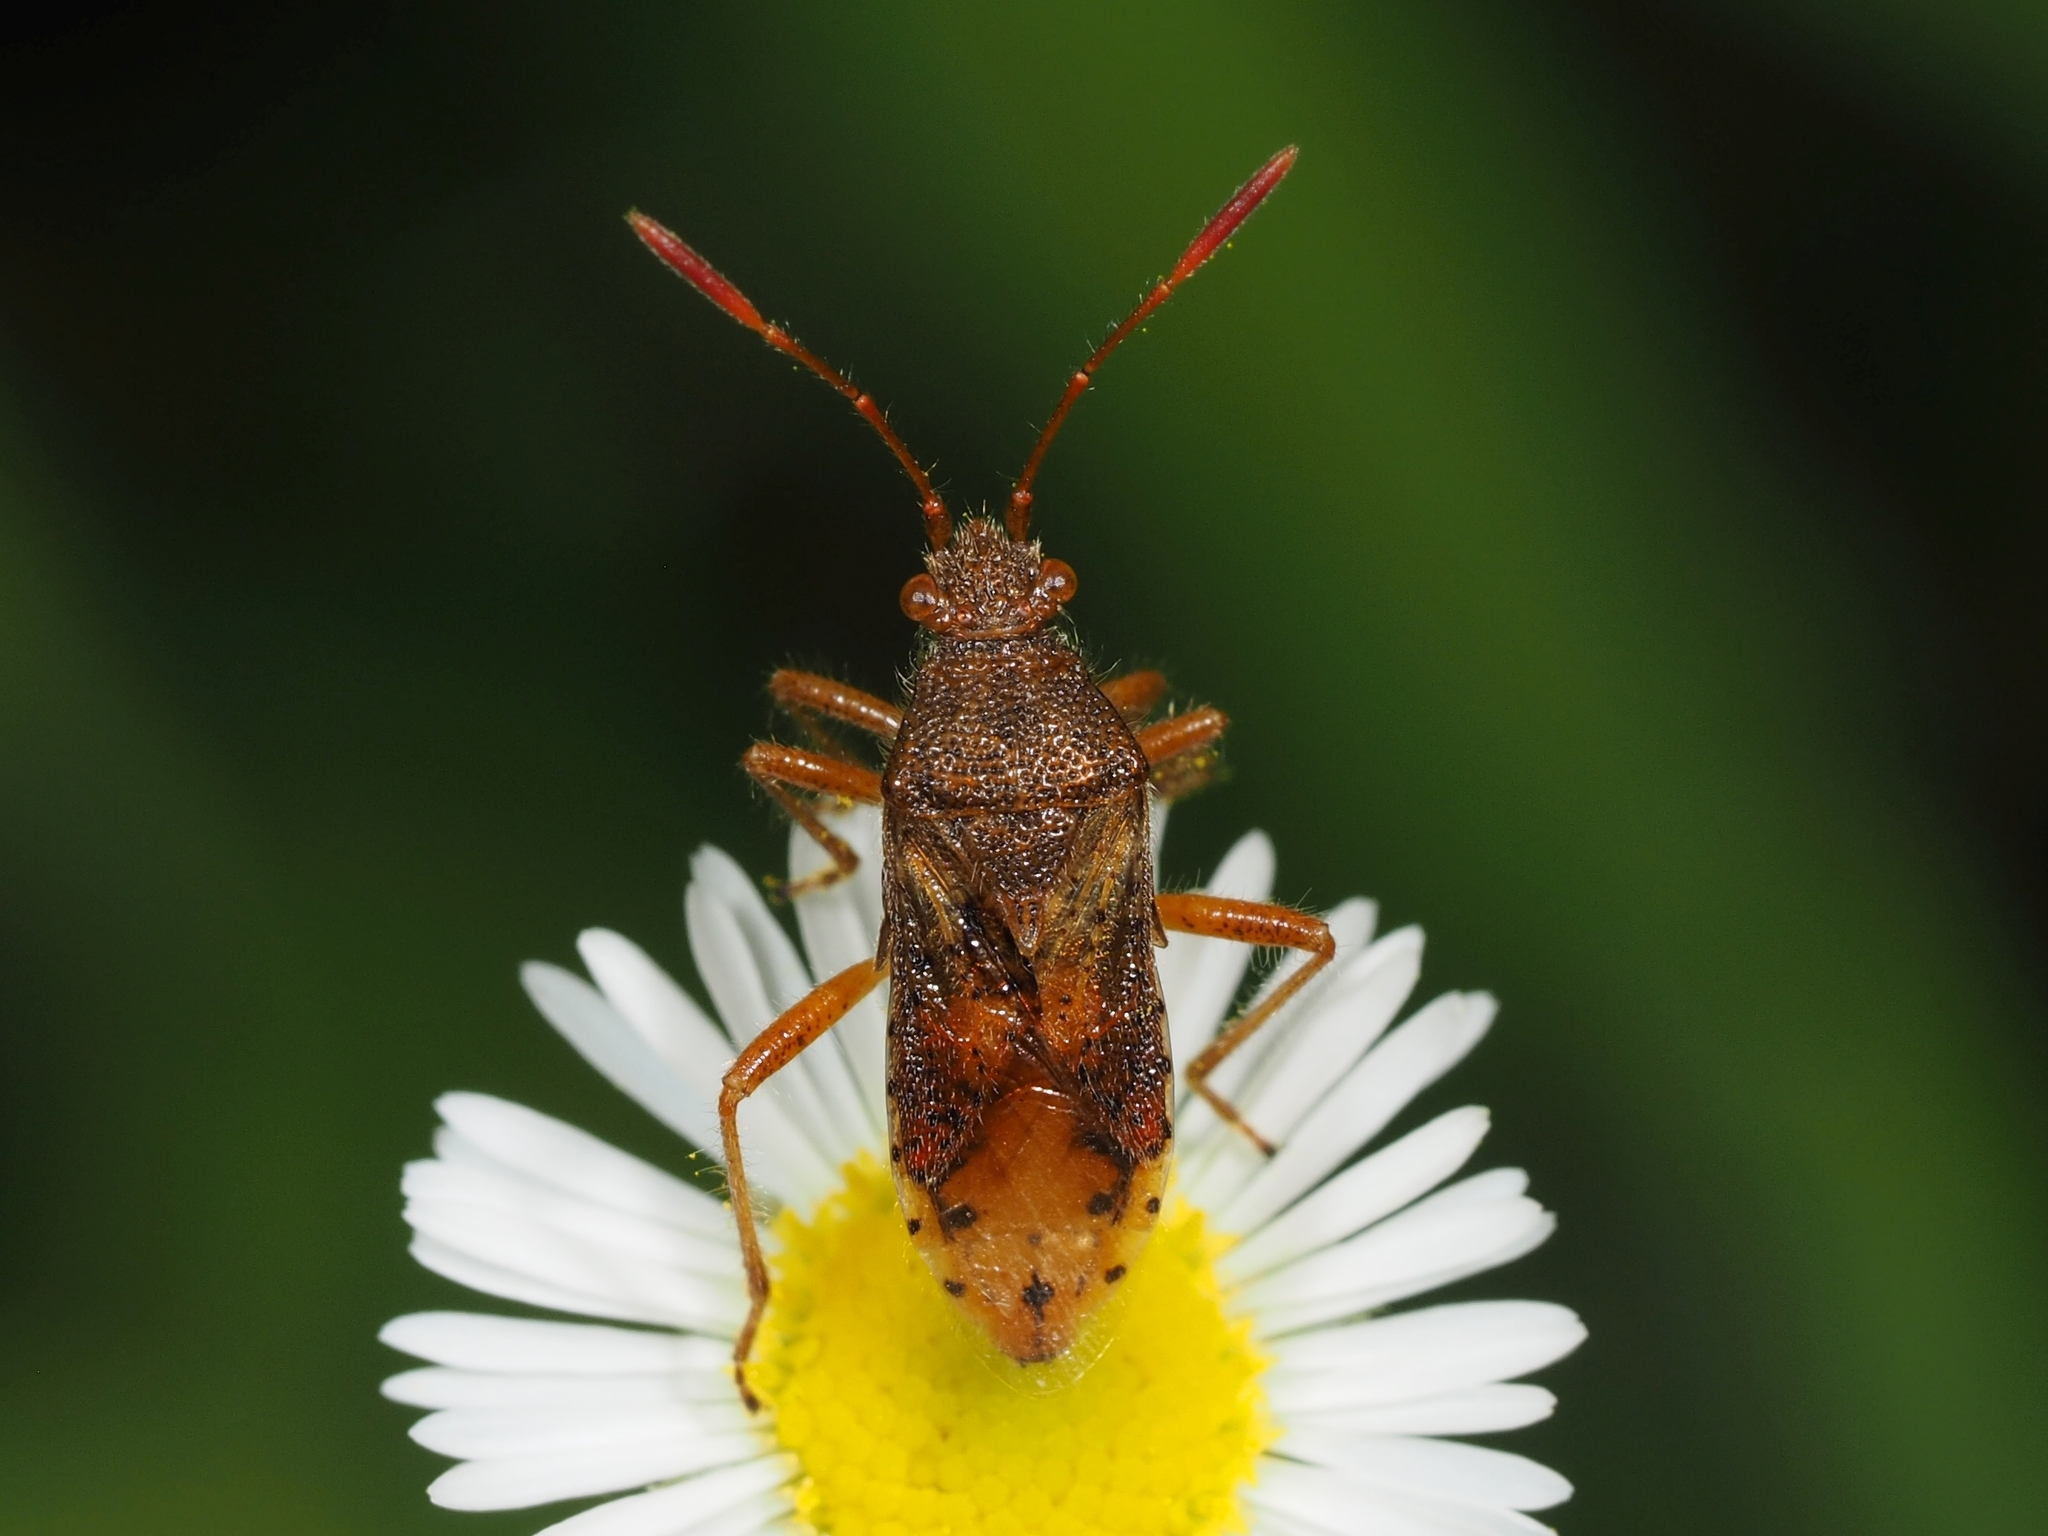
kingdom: Animalia
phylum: Arthropoda
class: Insecta
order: Hemiptera
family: Rhopalidae
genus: Rhopalus
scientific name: Rhopalus maculatus
